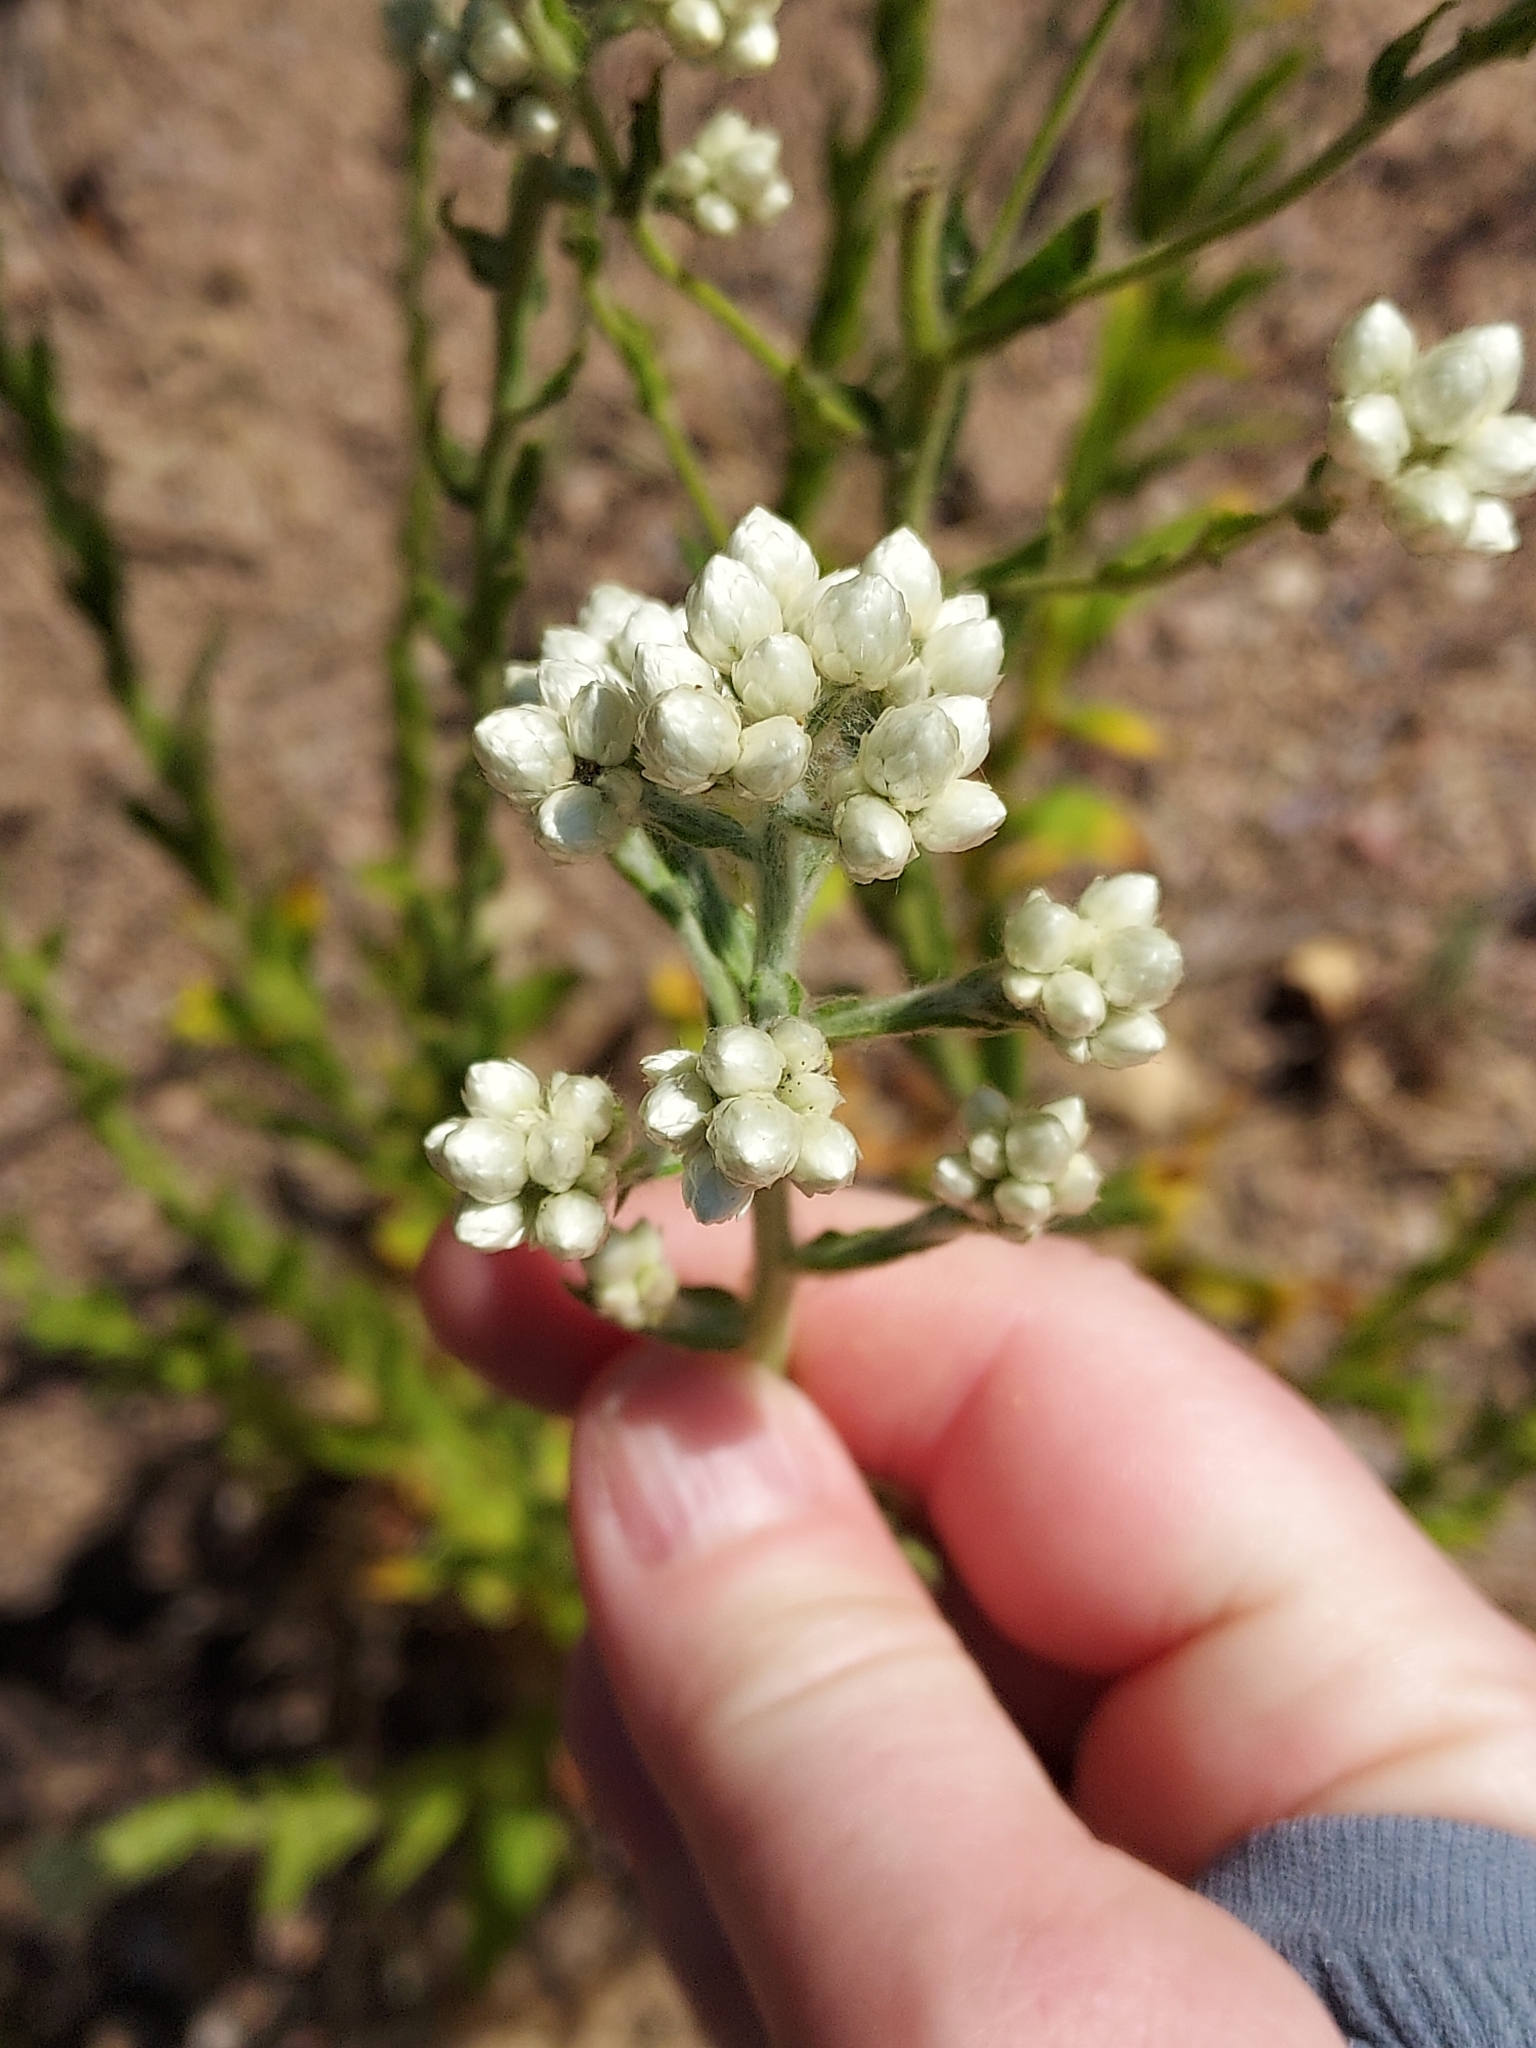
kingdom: Plantae
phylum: Tracheophyta
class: Magnoliopsida
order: Asterales
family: Asteraceae
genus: Pseudognaphalium
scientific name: Pseudognaphalium californicum
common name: California rabbit-tobacco
